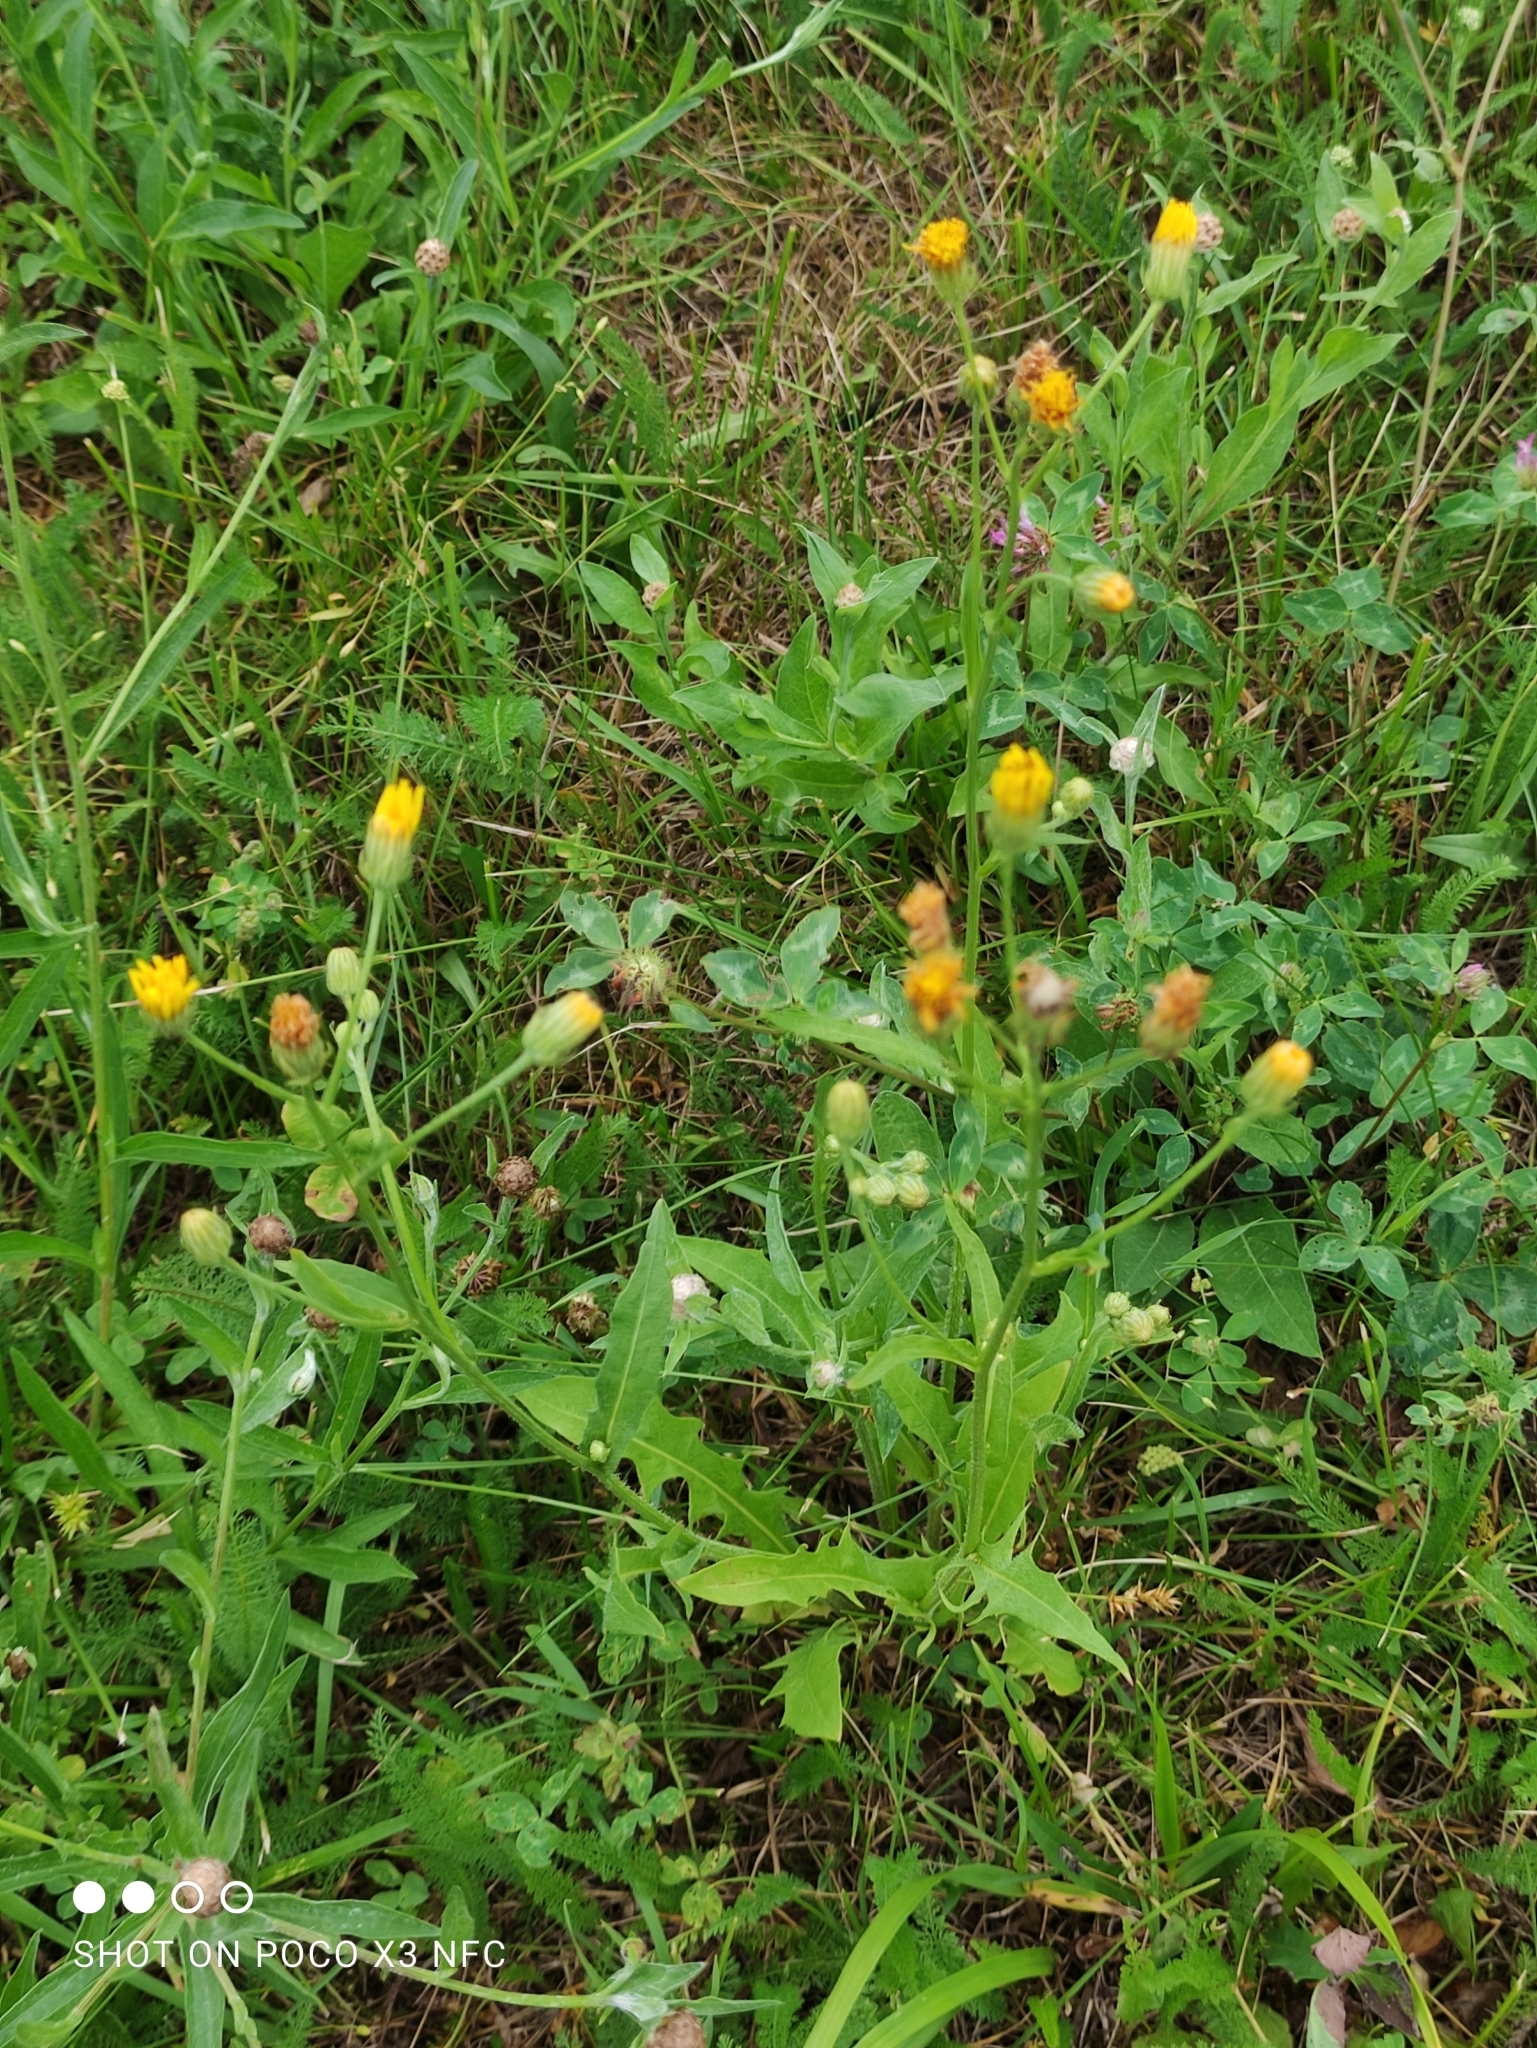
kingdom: Plantae
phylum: Tracheophyta
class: Magnoliopsida
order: Asterales
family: Asteraceae
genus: Crepis
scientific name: Crepis biennis
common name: Rough hawk's-beard
